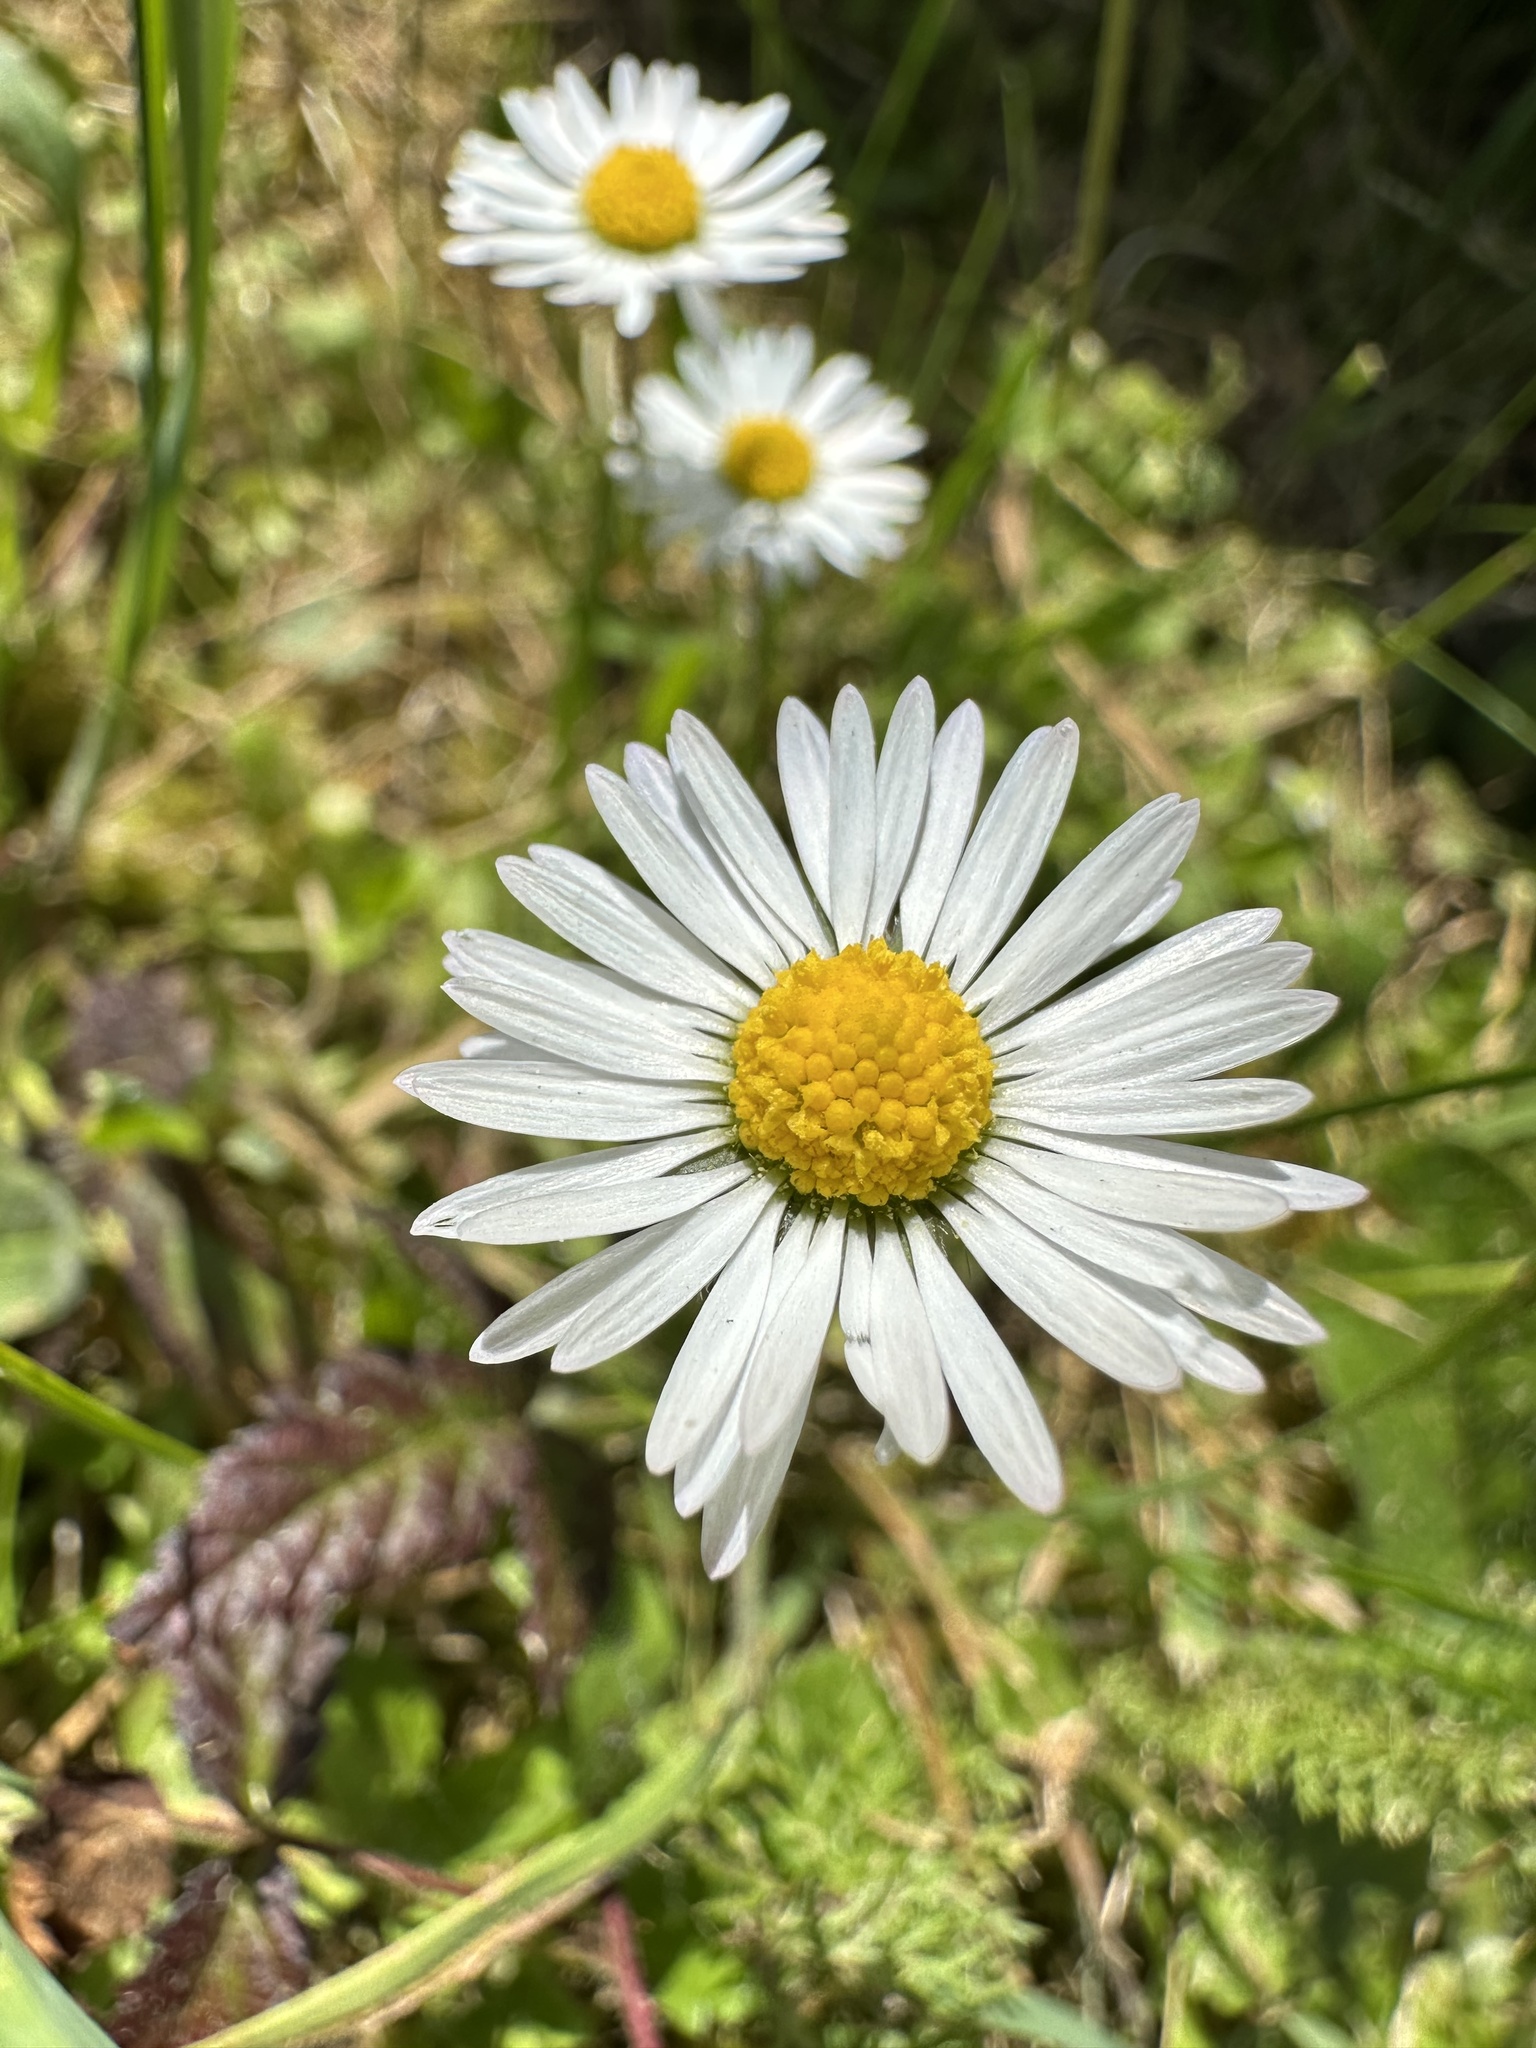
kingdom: Plantae
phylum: Tracheophyta
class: Magnoliopsida
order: Asterales
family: Asteraceae
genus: Bellis
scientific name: Bellis perennis
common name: Lawndaisy
